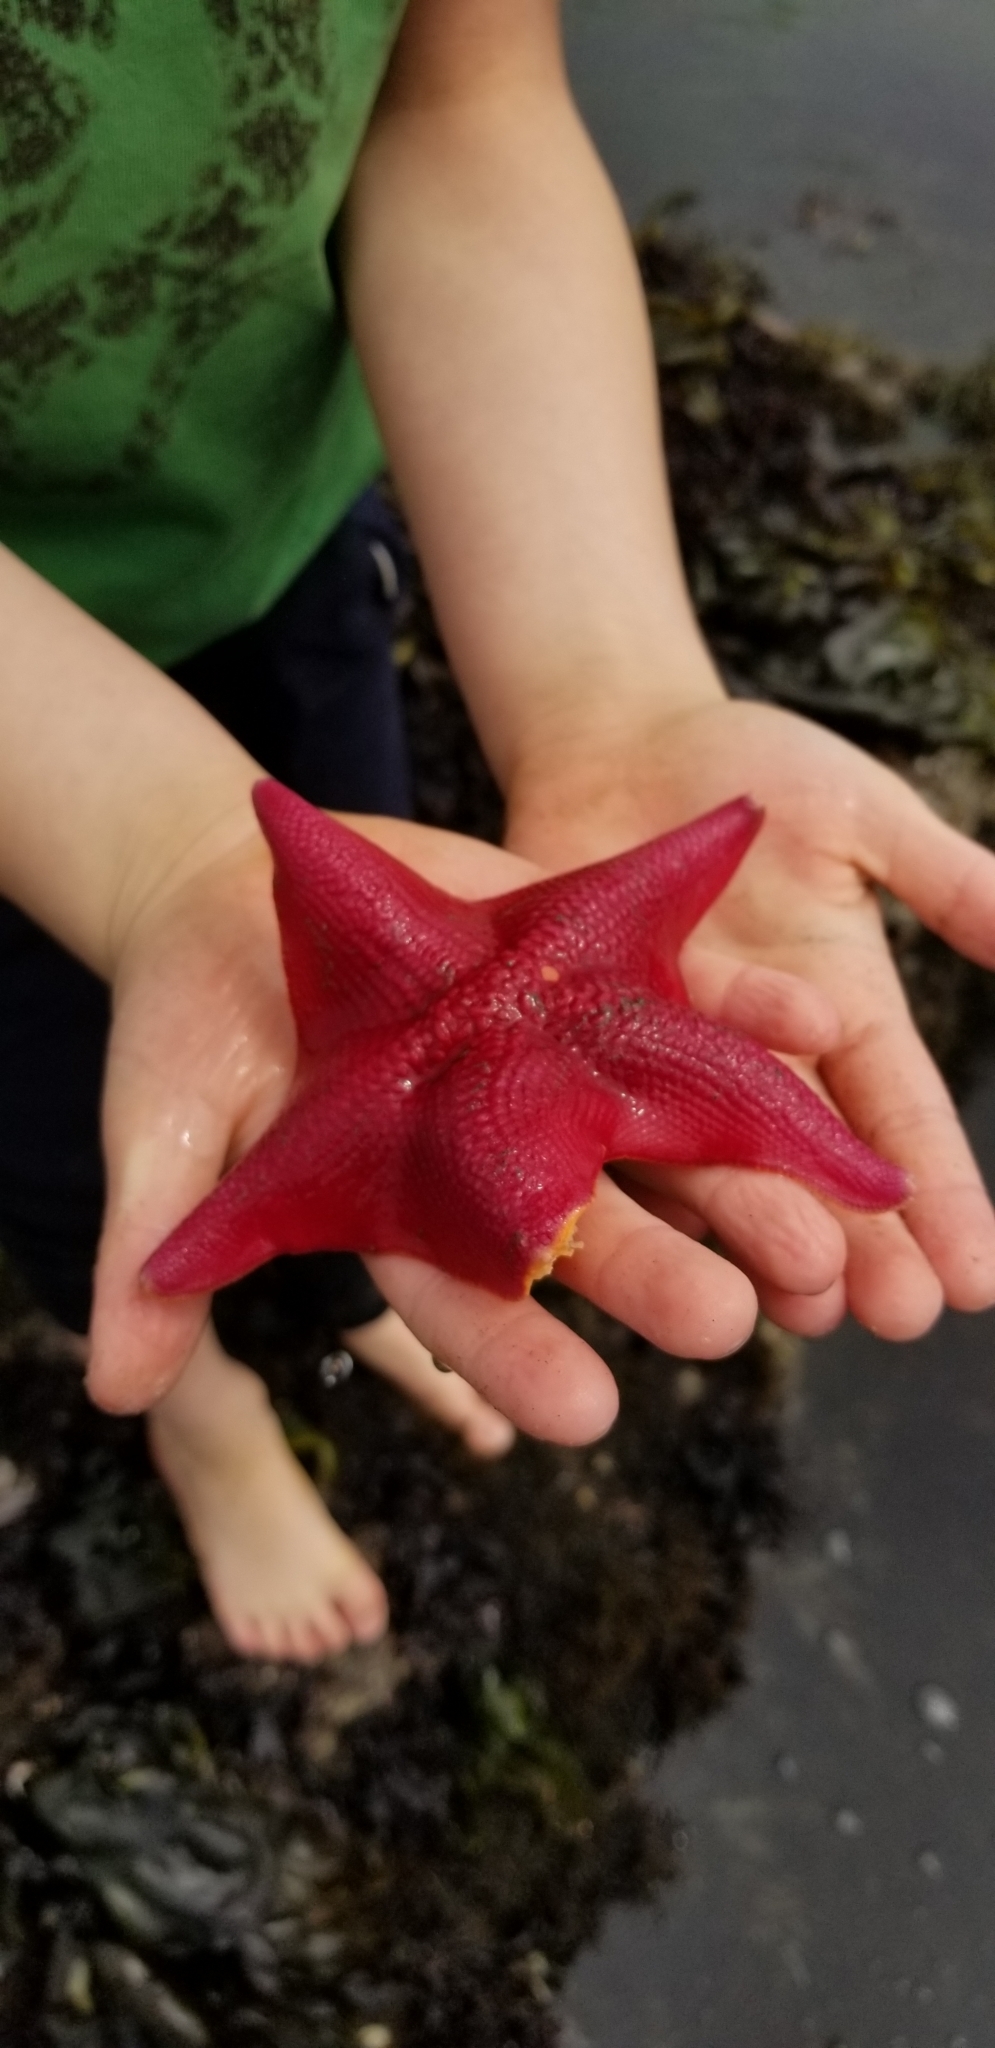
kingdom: Animalia
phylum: Echinodermata
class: Asteroidea
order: Valvatida
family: Asterinidae
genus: Patiria
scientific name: Patiria miniata
